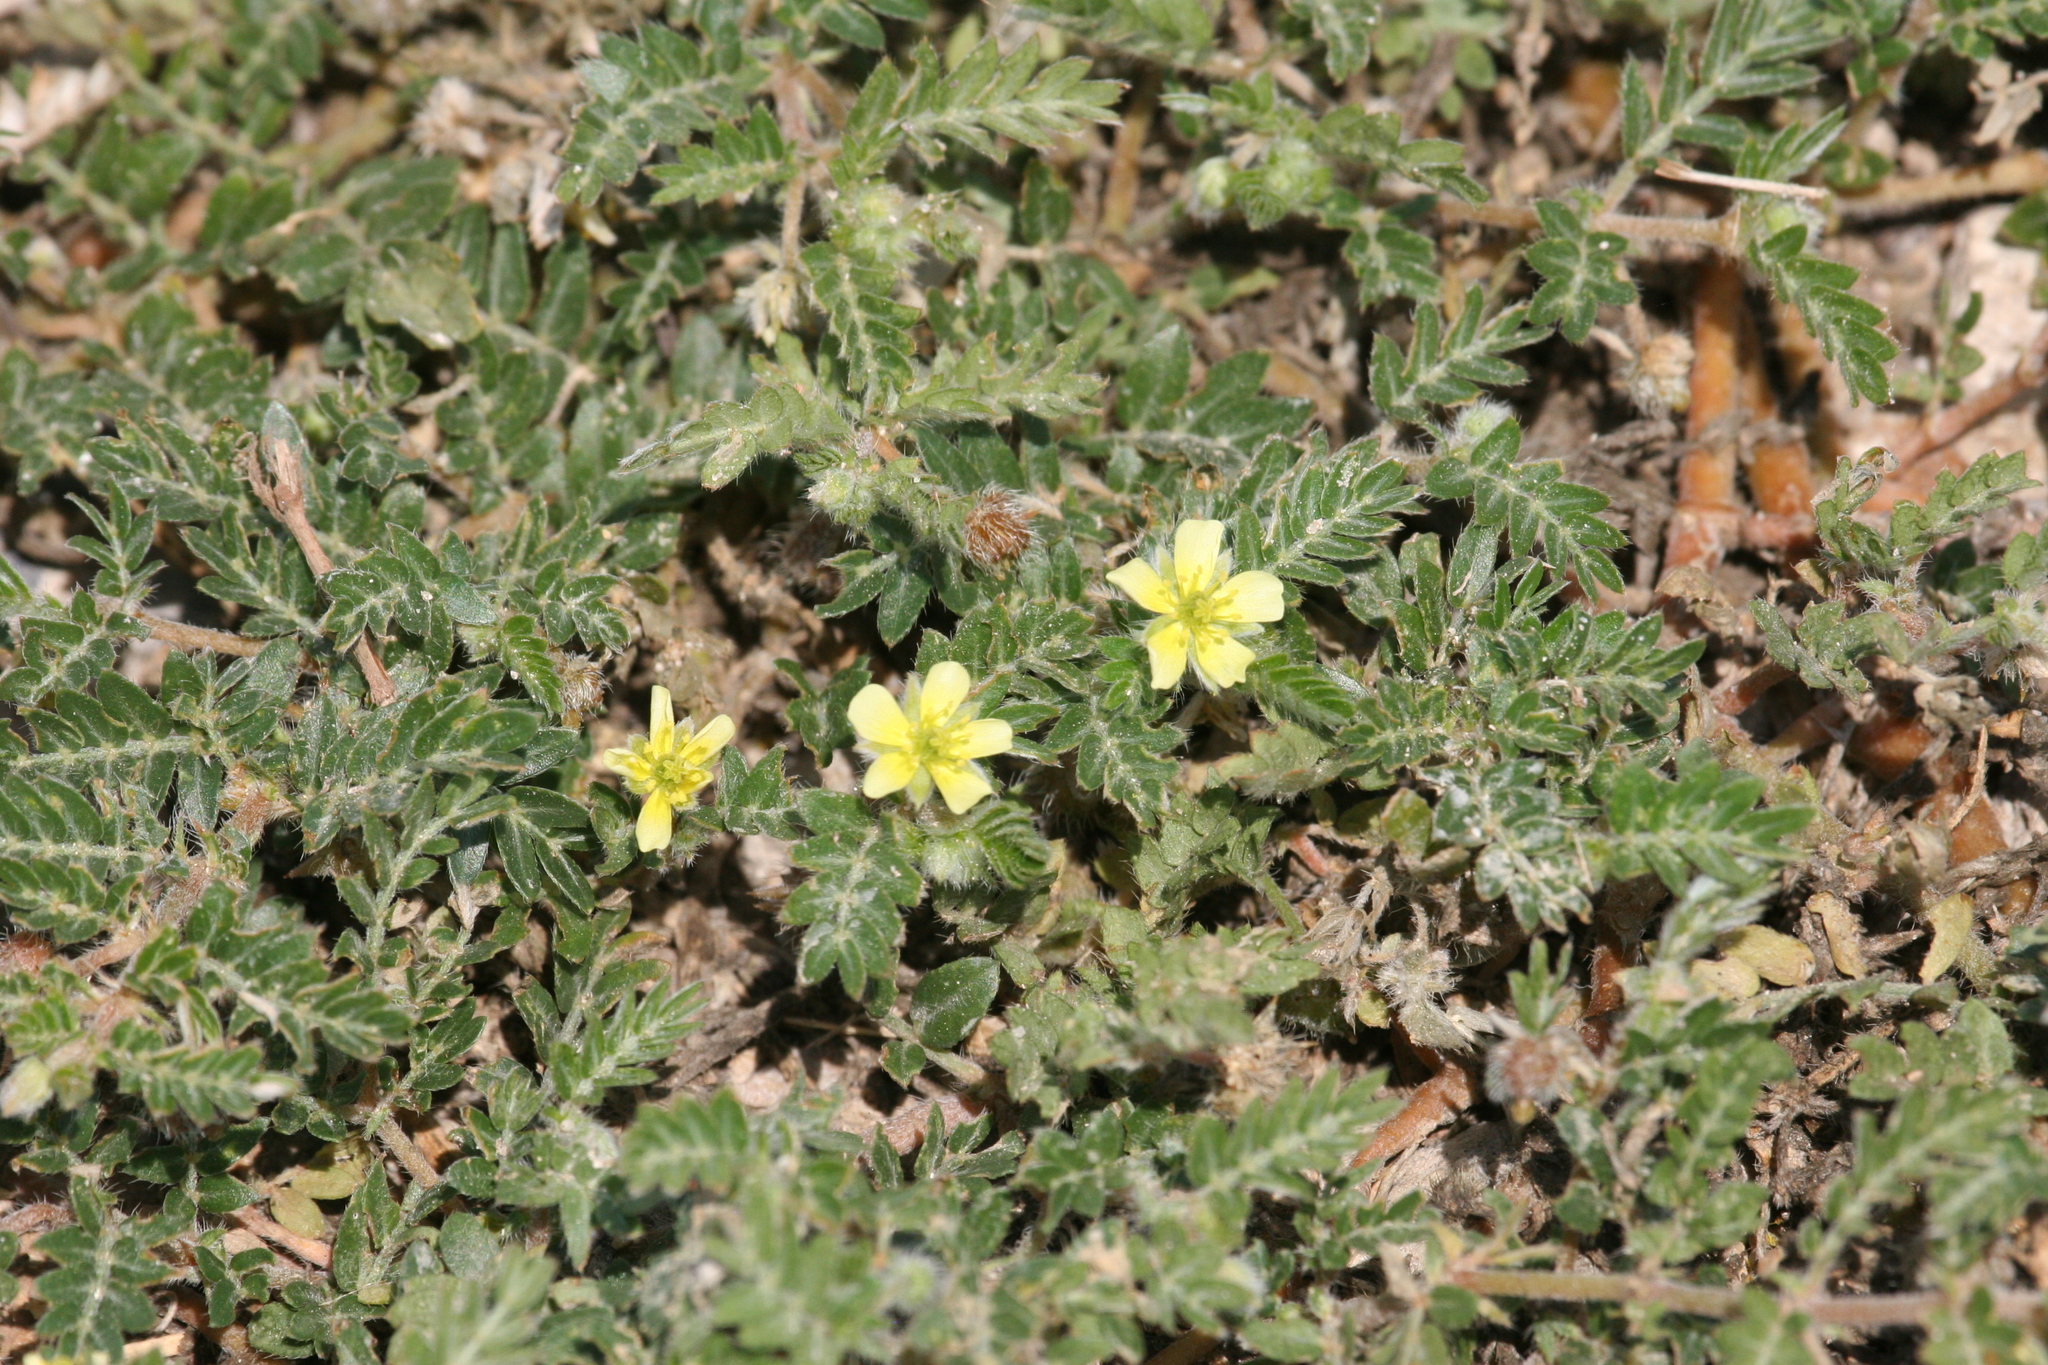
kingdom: Plantae
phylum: Tracheophyta
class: Magnoliopsida
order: Zygophyllales
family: Zygophyllaceae
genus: Tribulus
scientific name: Tribulus terrestris
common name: Puncturevine
